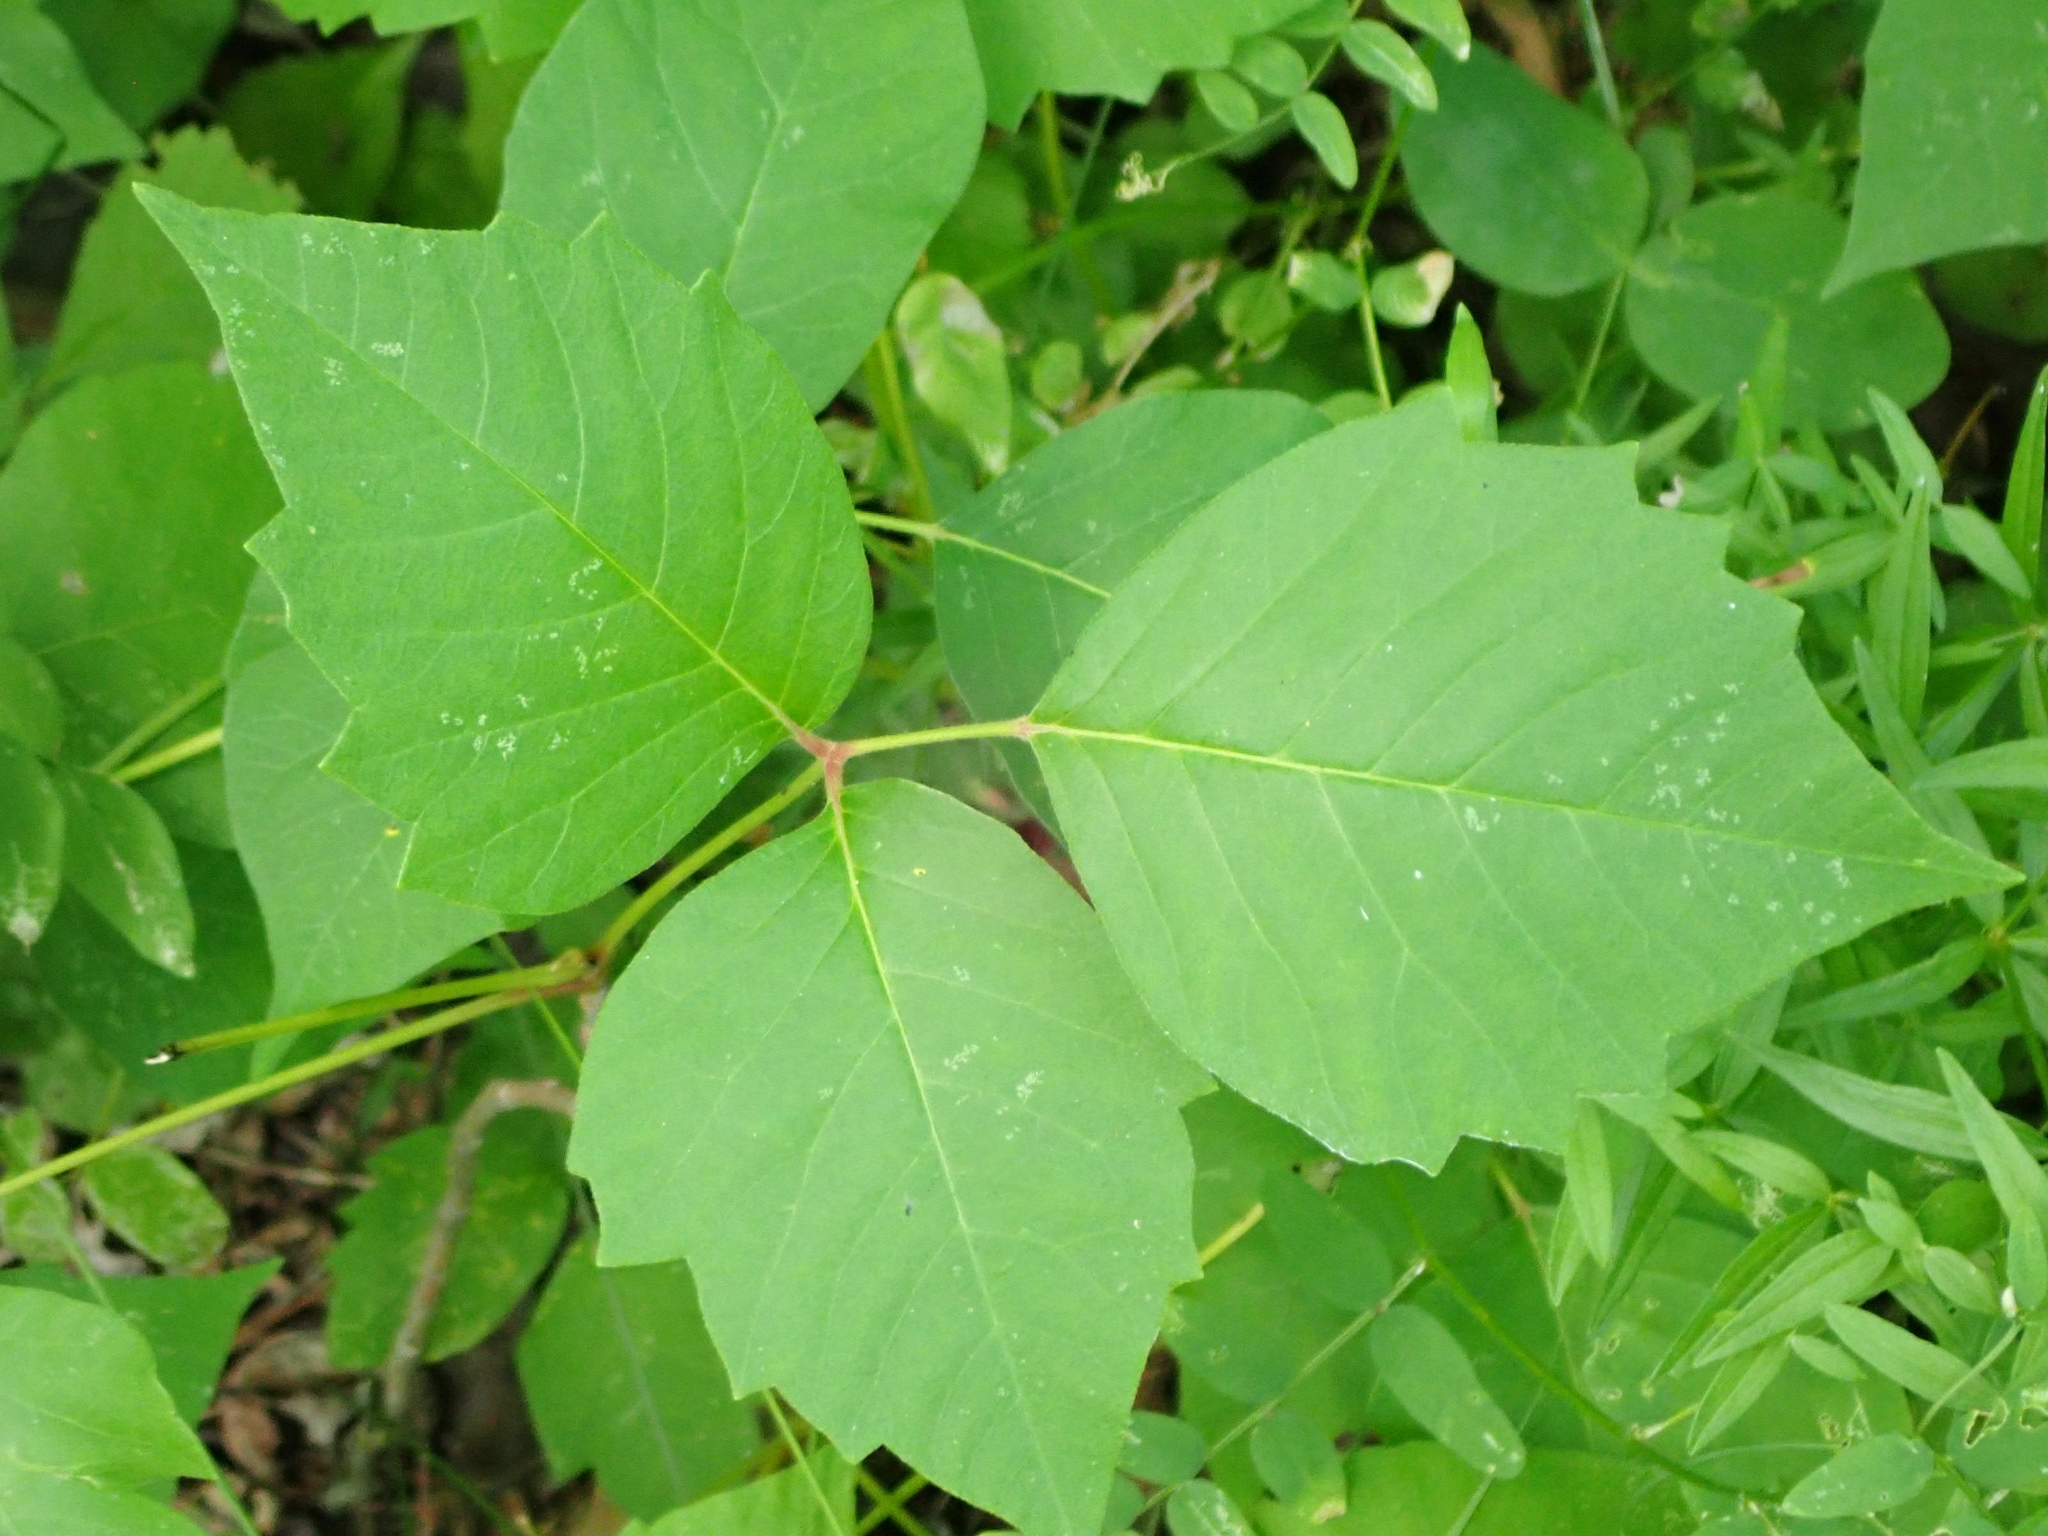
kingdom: Plantae
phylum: Tracheophyta
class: Magnoliopsida
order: Sapindales
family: Anacardiaceae
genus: Toxicodendron
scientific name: Toxicodendron rydbergii
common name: Rydberg's poison-ivy
